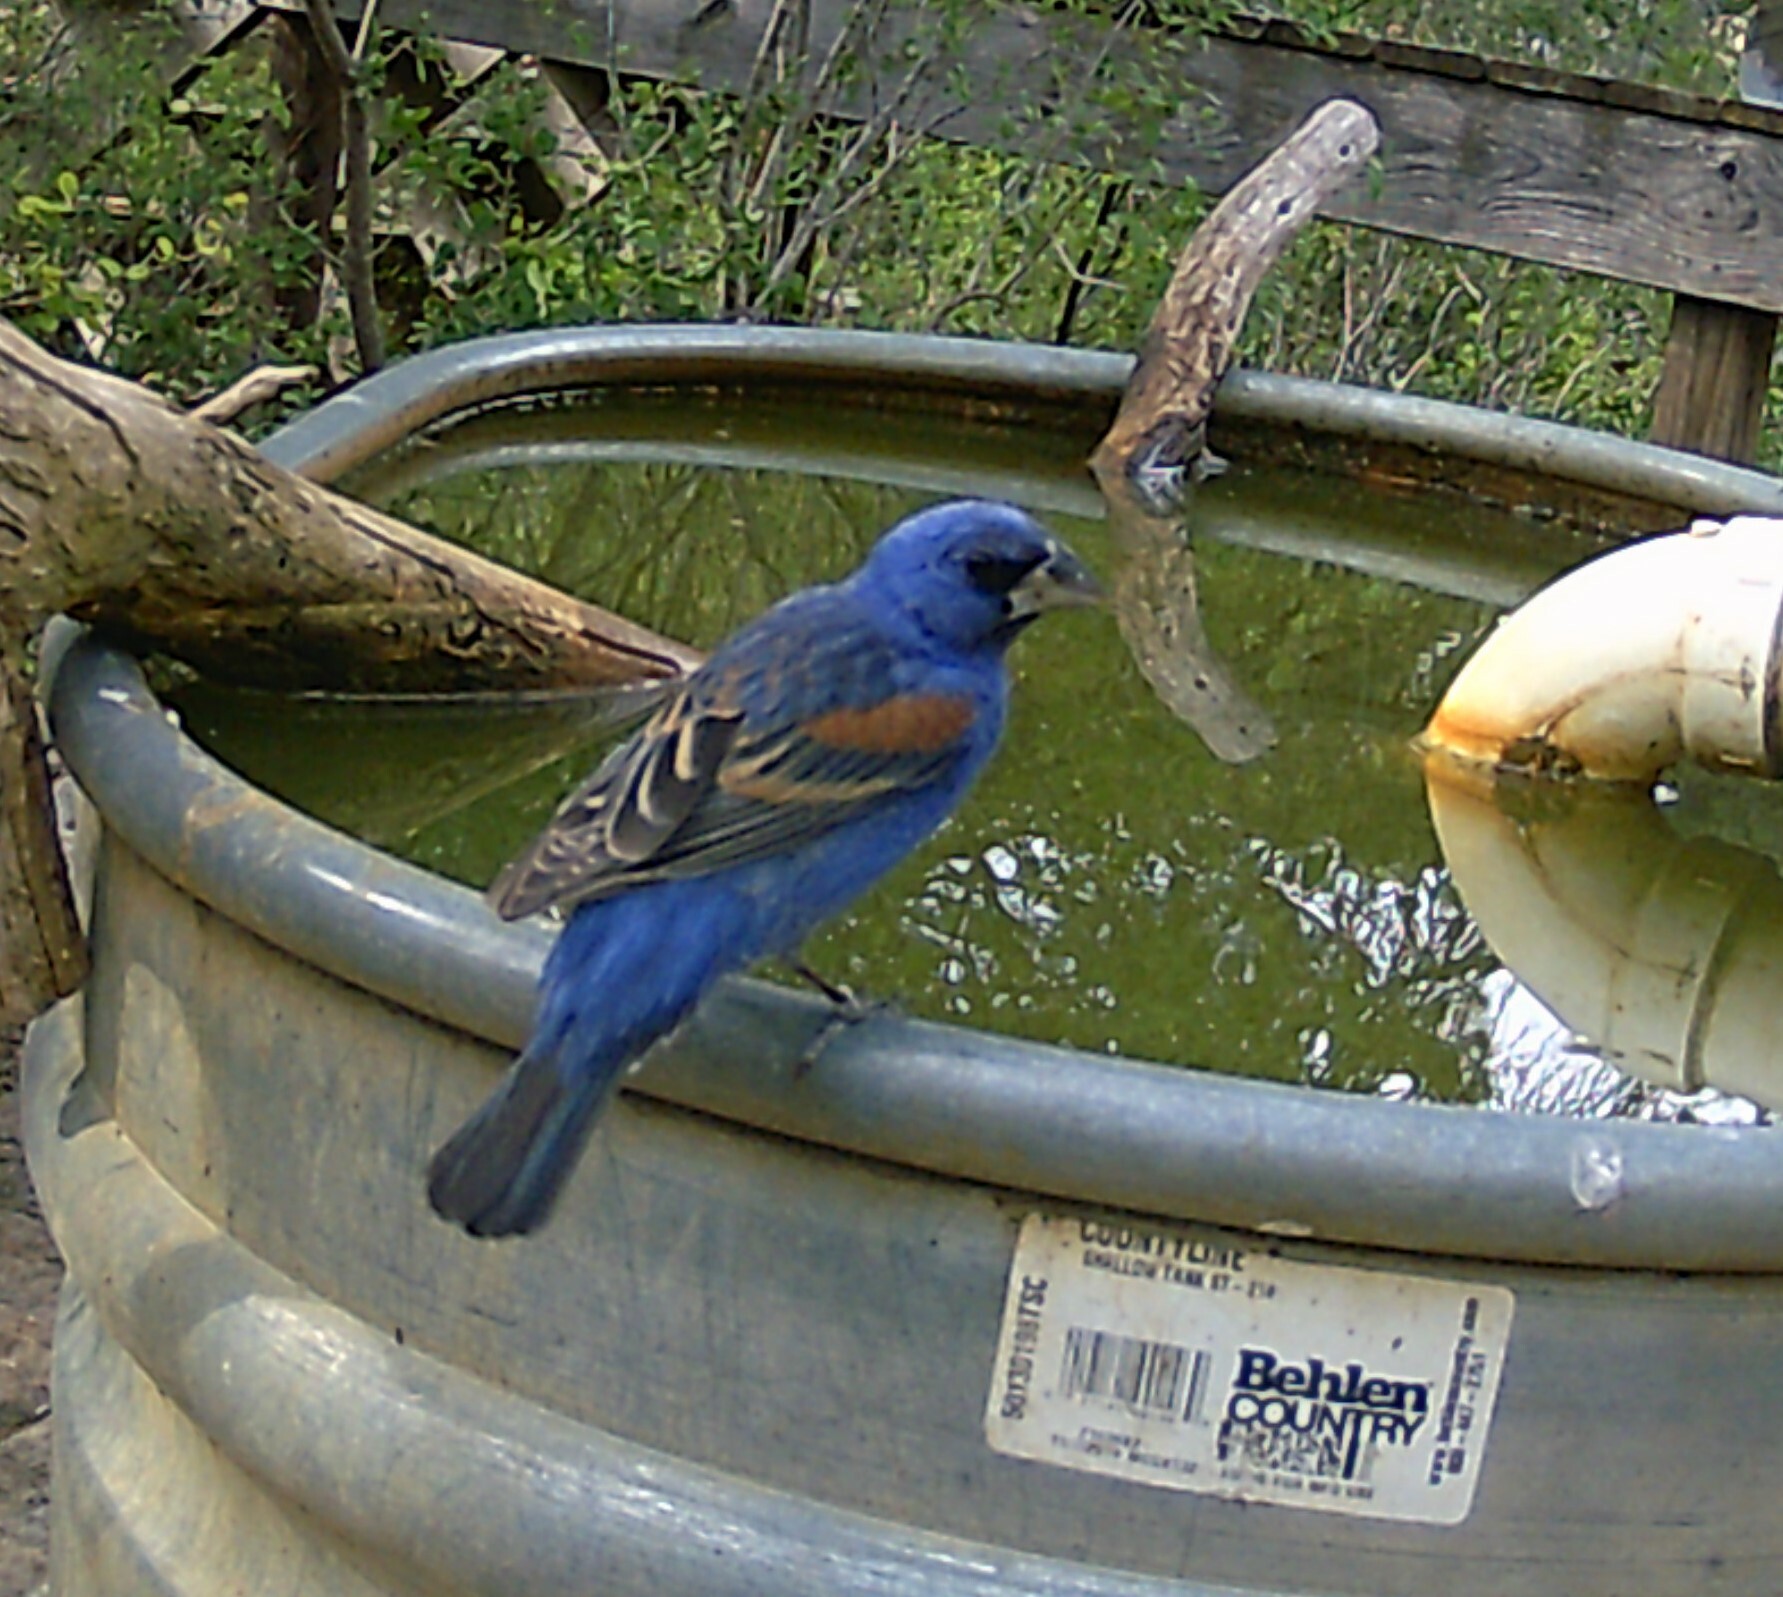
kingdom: Animalia
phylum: Chordata
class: Aves
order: Passeriformes
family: Cardinalidae
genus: Passerina
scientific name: Passerina caerulea
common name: Blue grosbeak
